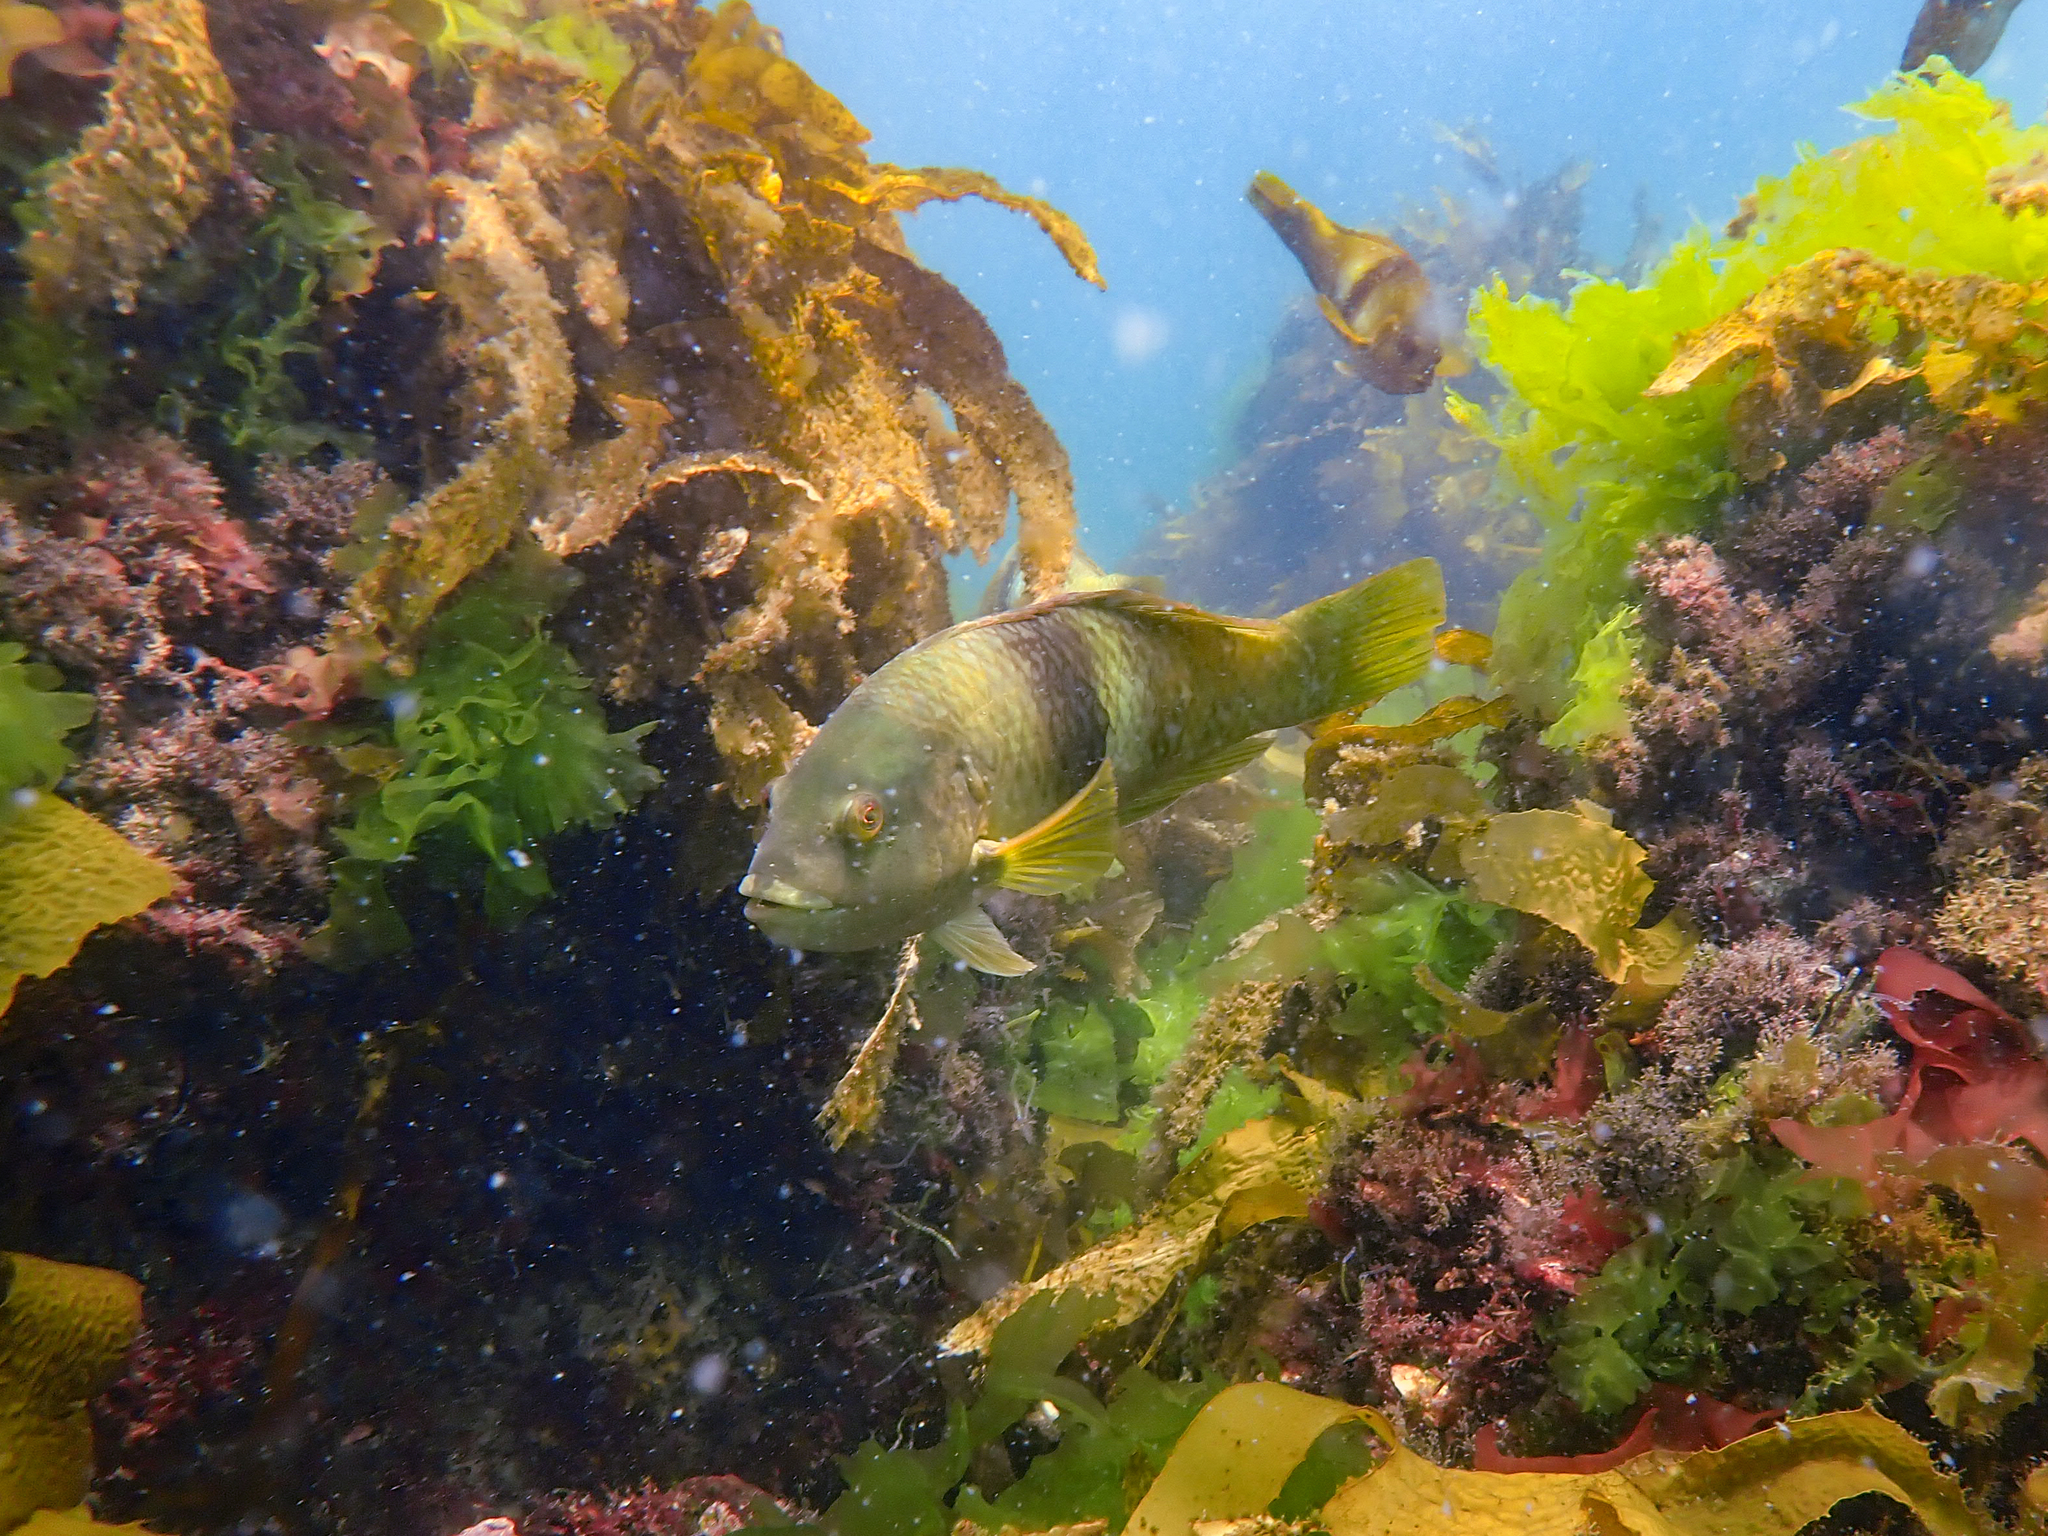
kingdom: Animalia
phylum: Chordata
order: Perciformes
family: Labridae
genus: Notolabrus
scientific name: Notolabrus tetricus
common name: Blue-throated parrotfish
